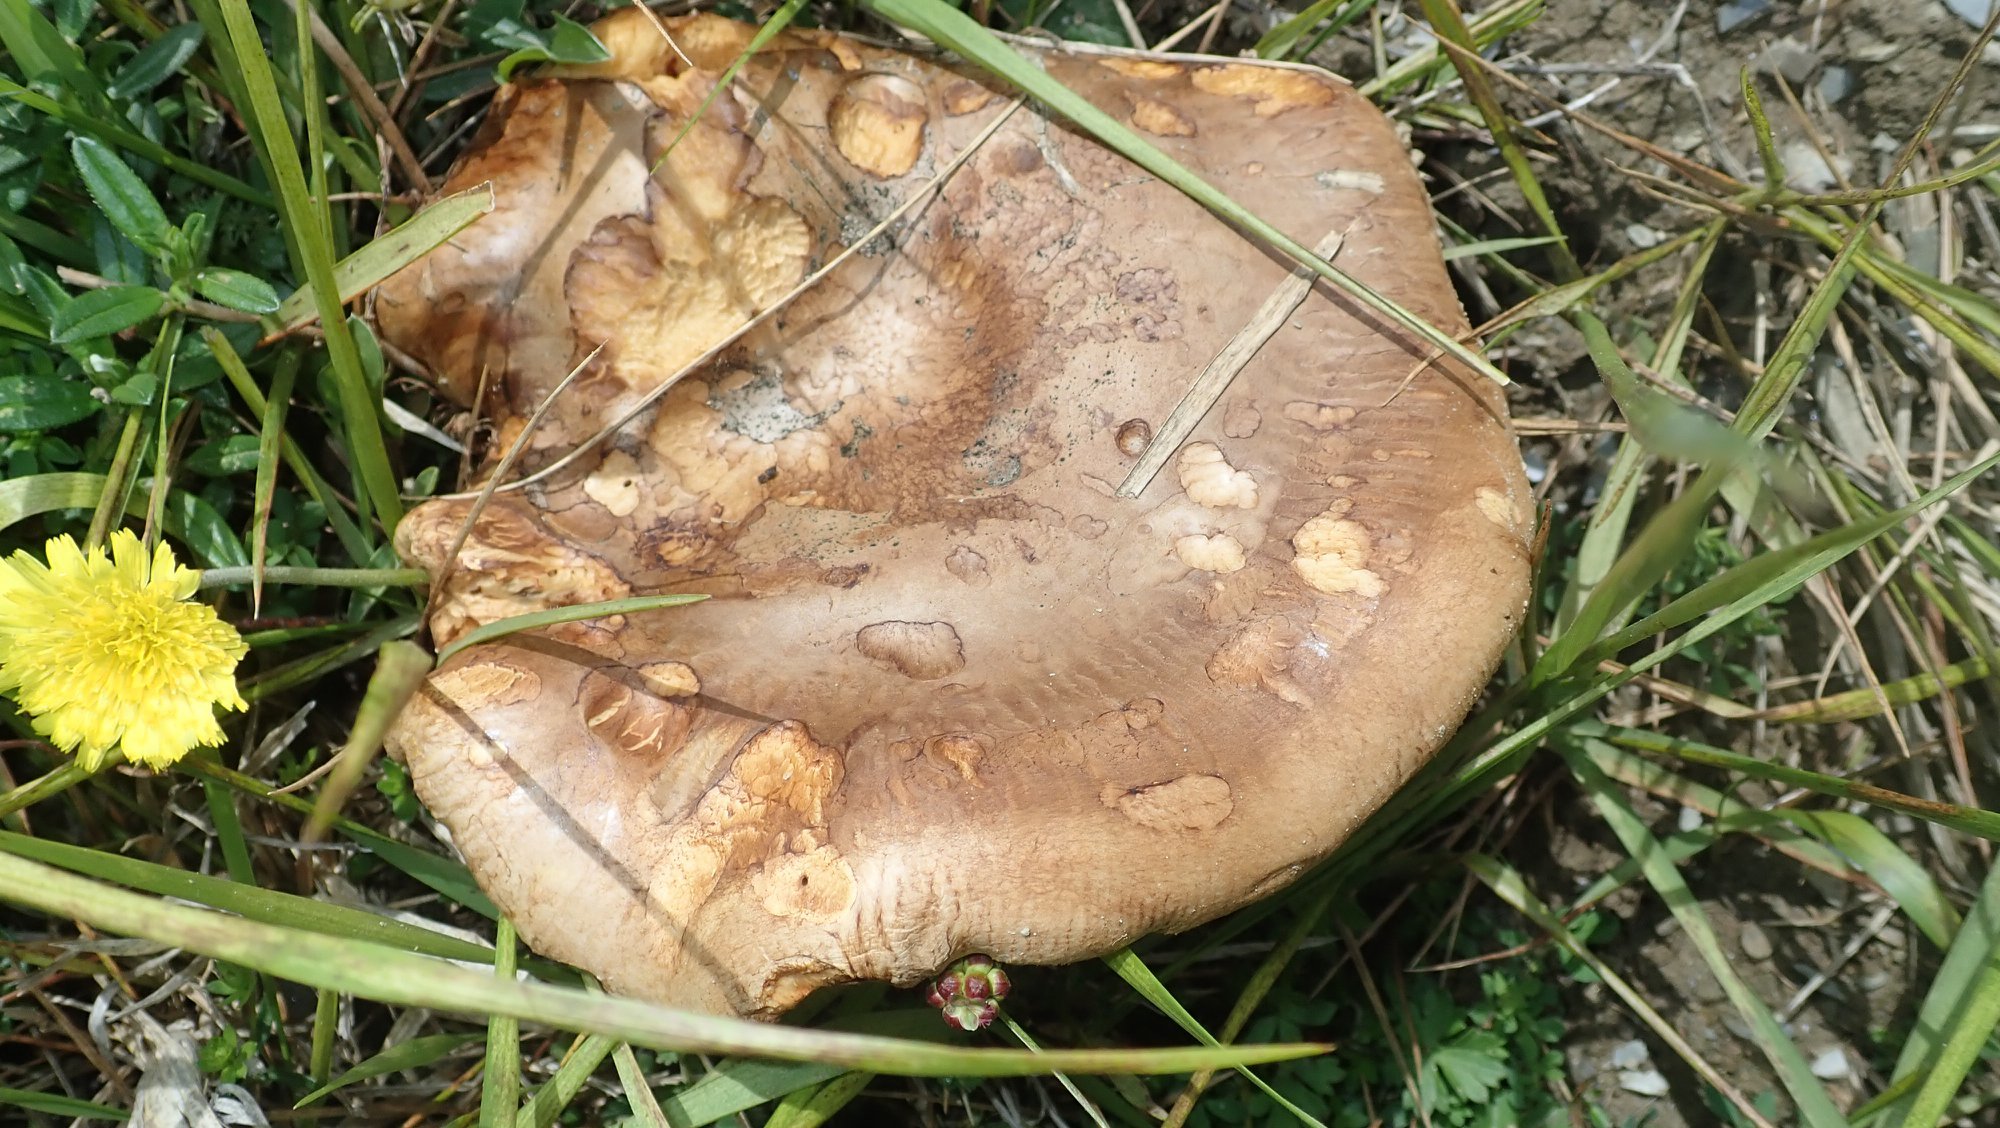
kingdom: Fungi
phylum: Basidiomycota
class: Agaricomycetes
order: Boletales
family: Paxillaceae
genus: Paxillus
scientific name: Paxillus involutus
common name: Brown roll rim
